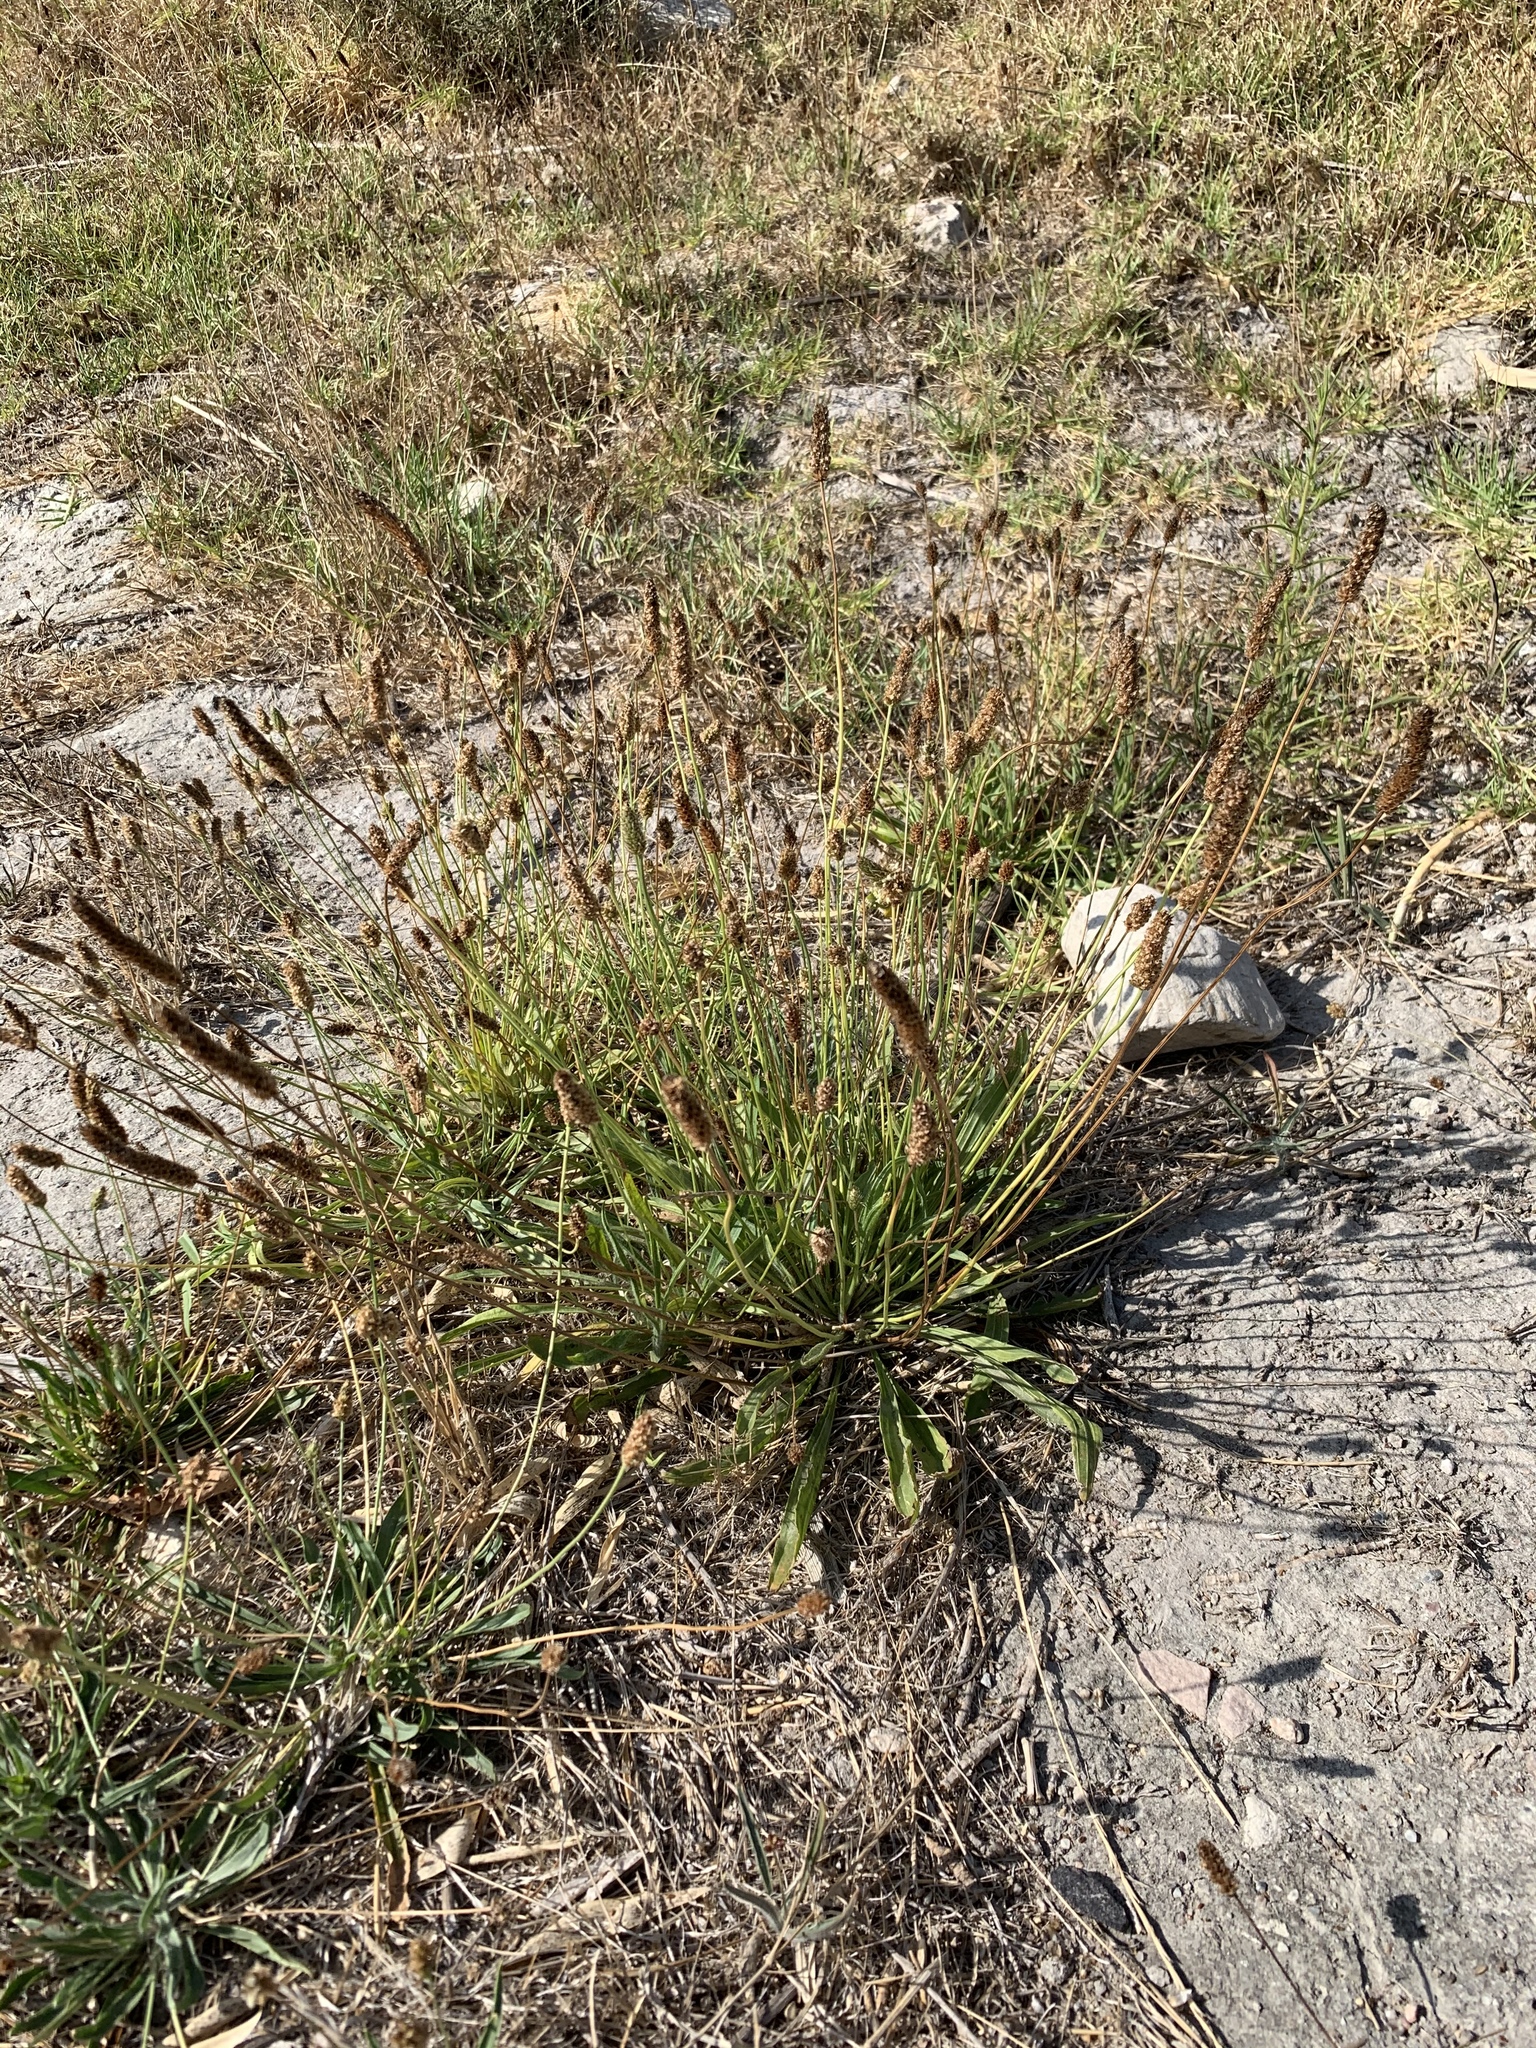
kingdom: Plantae
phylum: Tracheophyta
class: Magnoliopsida
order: Lamiales
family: Plantaginaceae
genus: Plantago
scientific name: Plantago lanceolata
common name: Ribwort plantain
